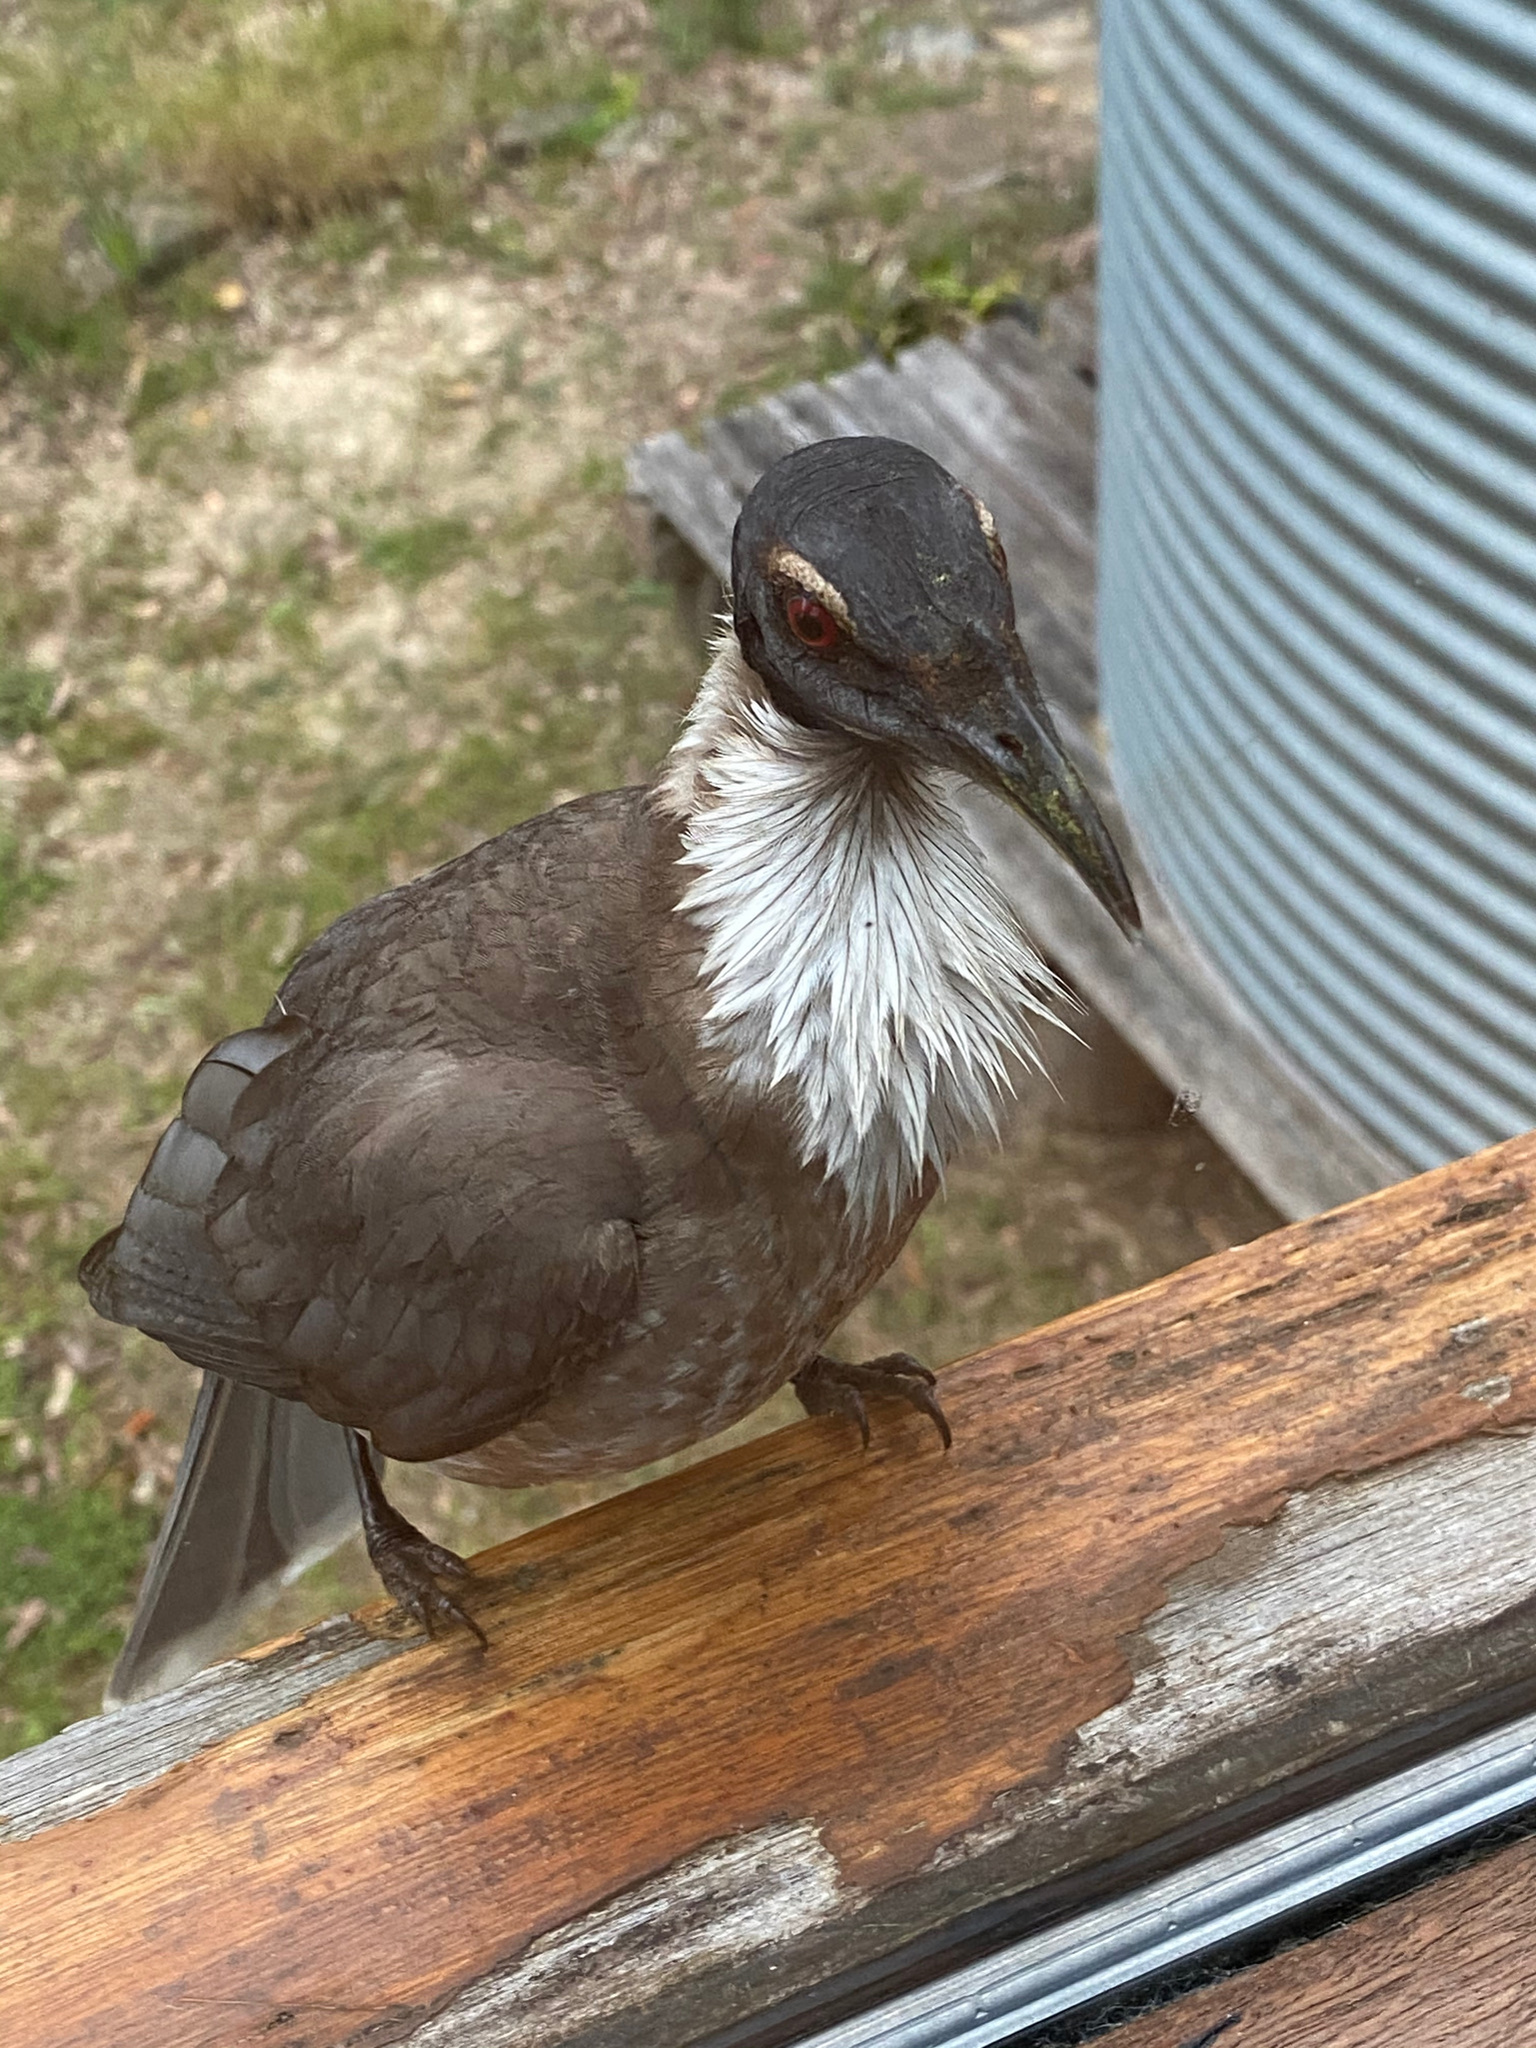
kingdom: Animalia
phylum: Chordata
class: Aves
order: Passeriformes
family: Meliphagidae
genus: Philemon
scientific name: Philemon corniculatus
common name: Noisy friarbird
